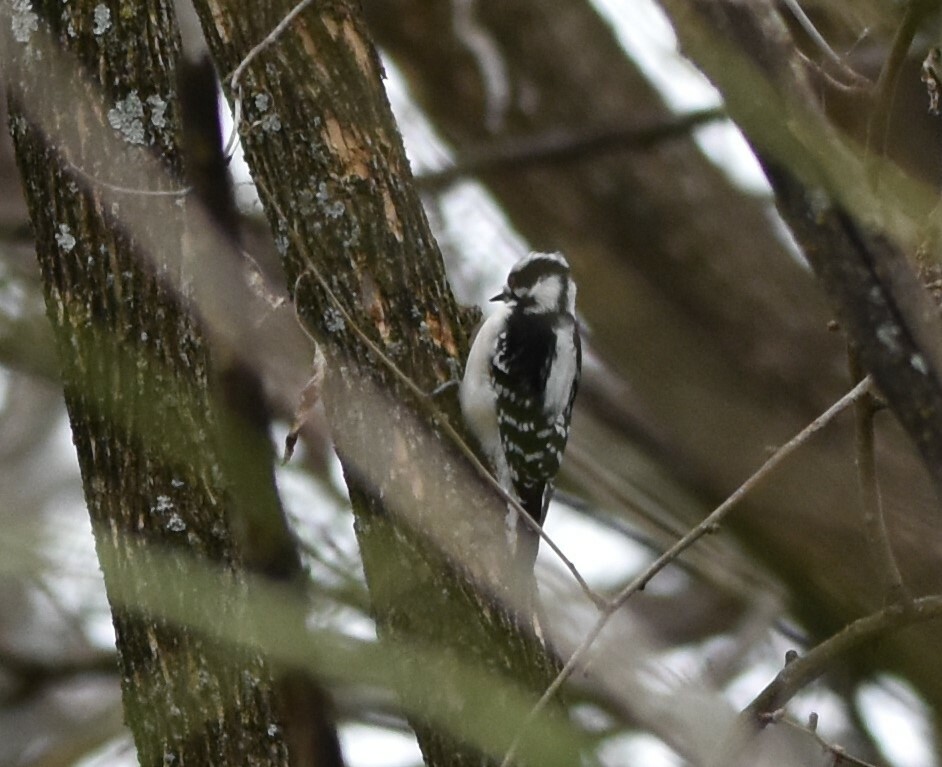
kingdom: Animalia
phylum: Chordata
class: Aves
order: Piciformes
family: Picidae
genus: Dryobates
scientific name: Dryobates pubescens
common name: Downy woodpecker
